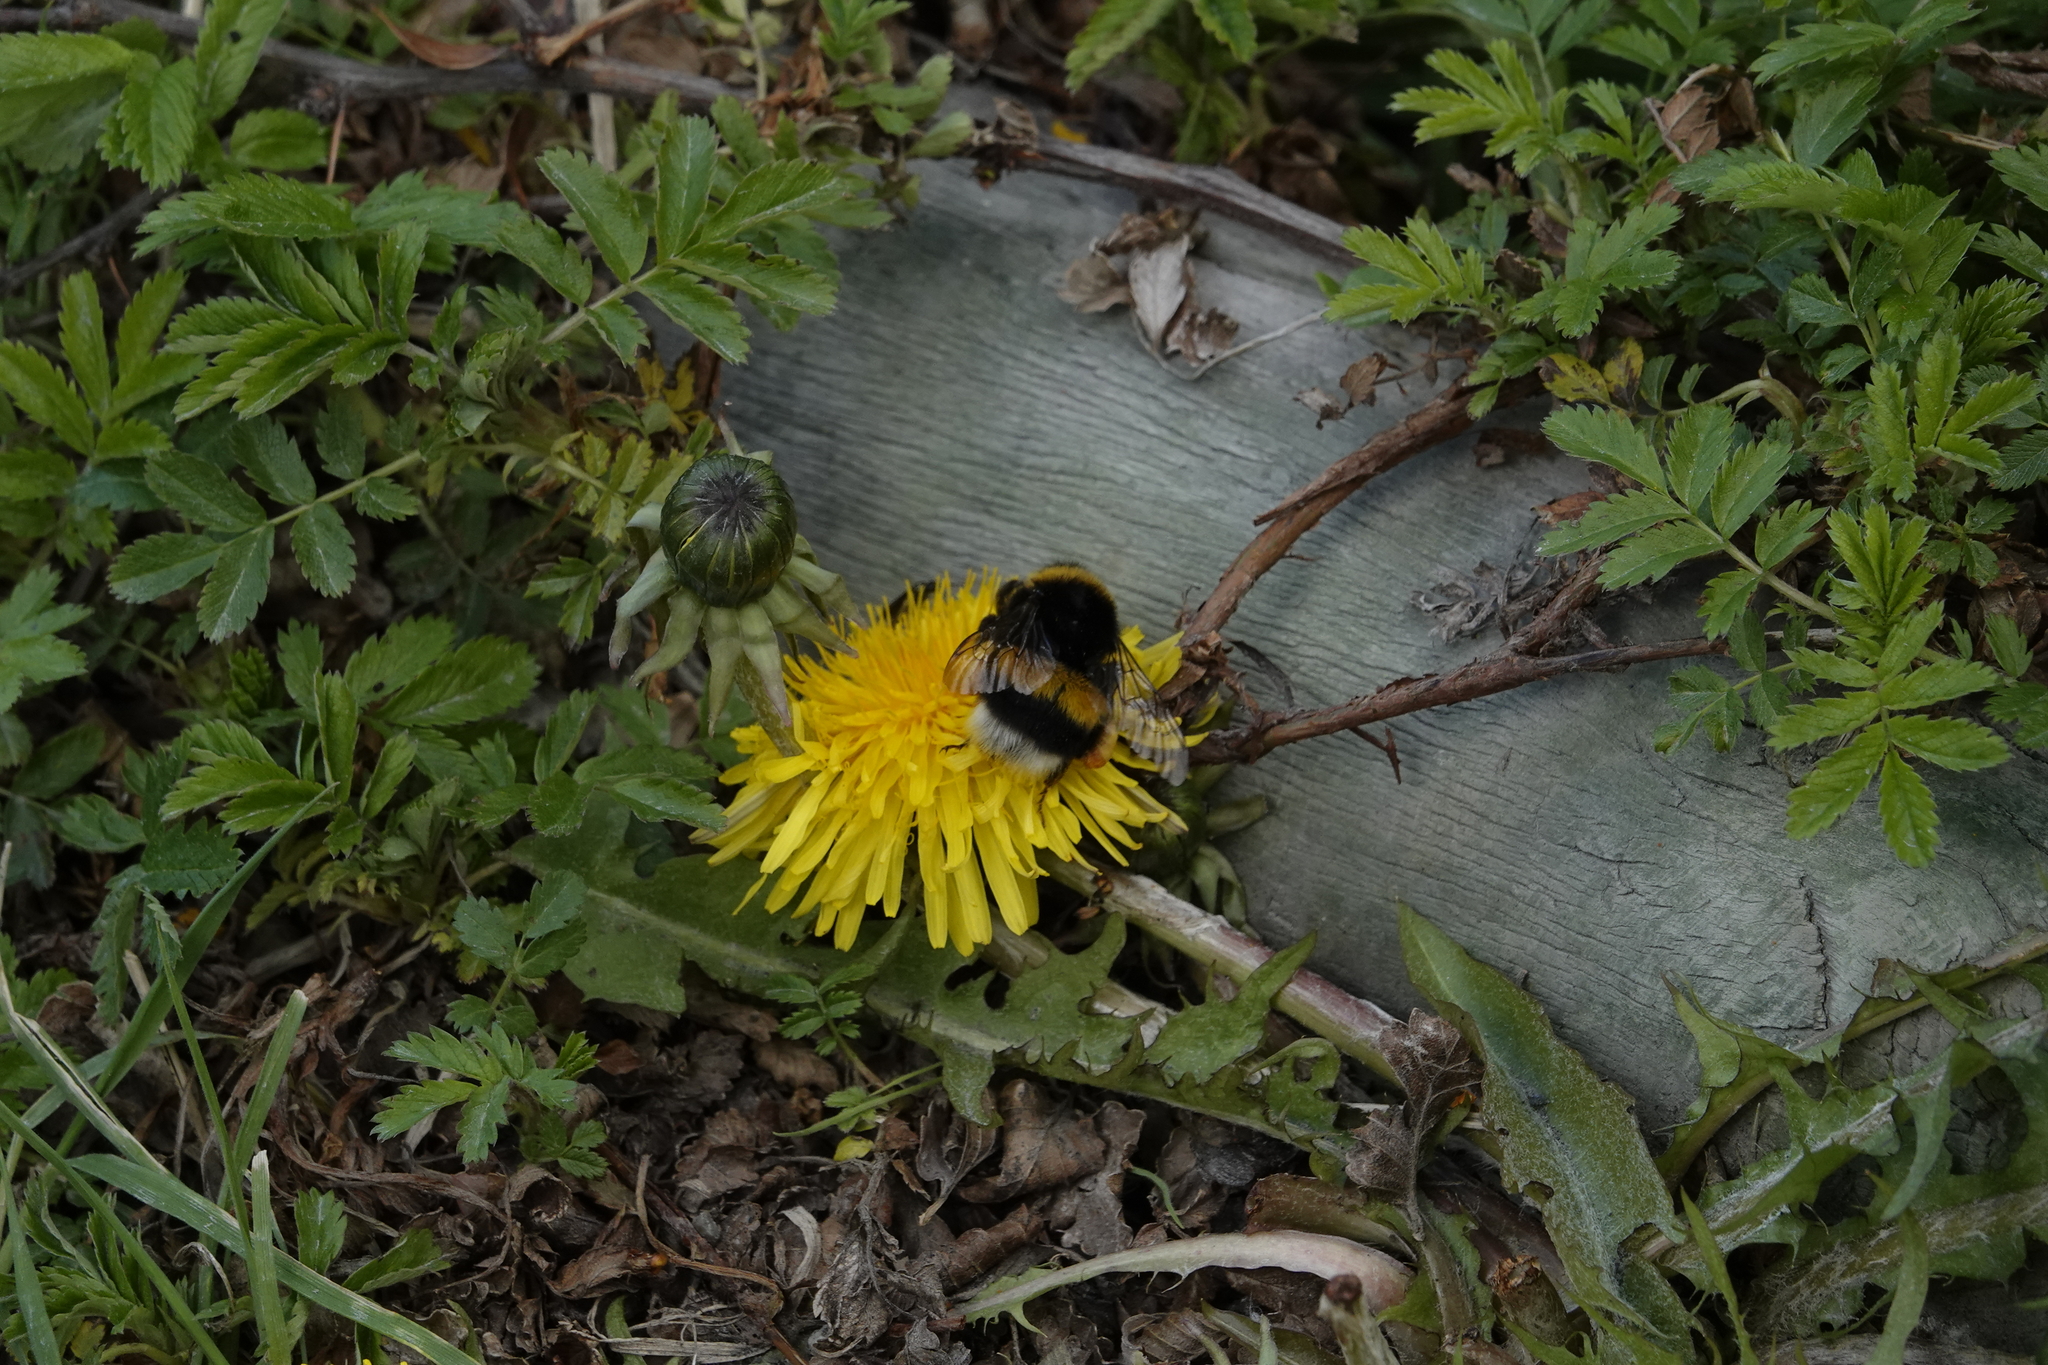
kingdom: Animalia
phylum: Arthropoda
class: Insecta
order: Hymenoptera
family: Apidae
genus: Bombus
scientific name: Bombus terrestris
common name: Buff-tailed bumblebee
